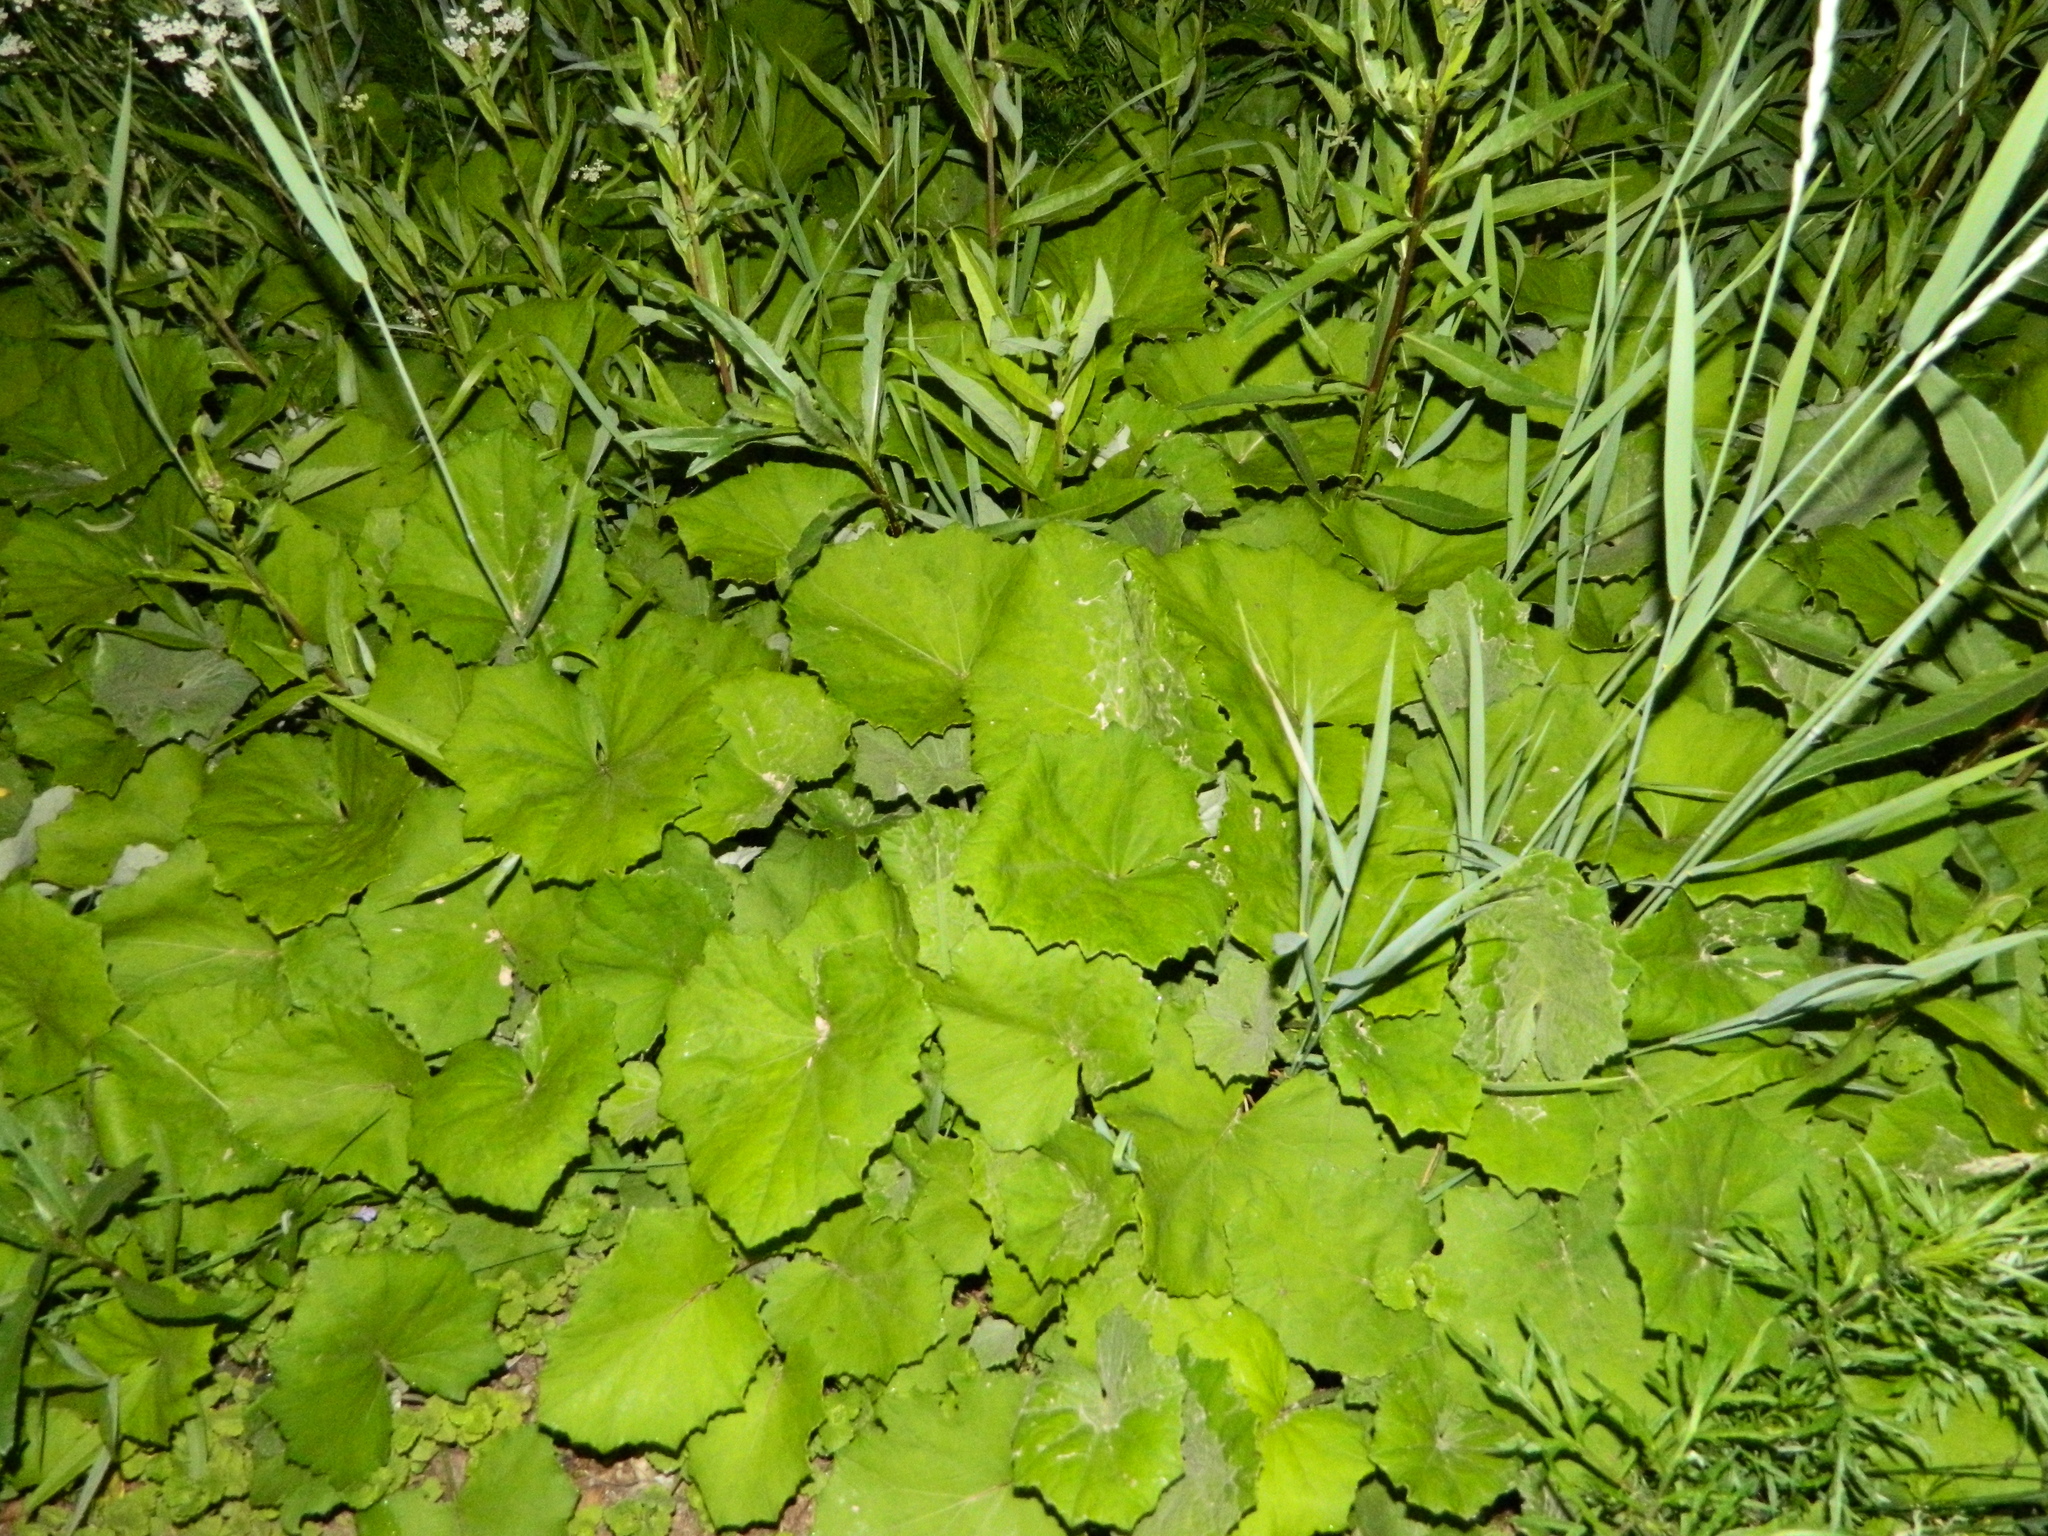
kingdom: Plantae
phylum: Tracheophyta
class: Magnoliopsida
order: Asterales
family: Asteraceae
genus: Tussilago
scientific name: Tussilago farfara
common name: Coltsfoot
